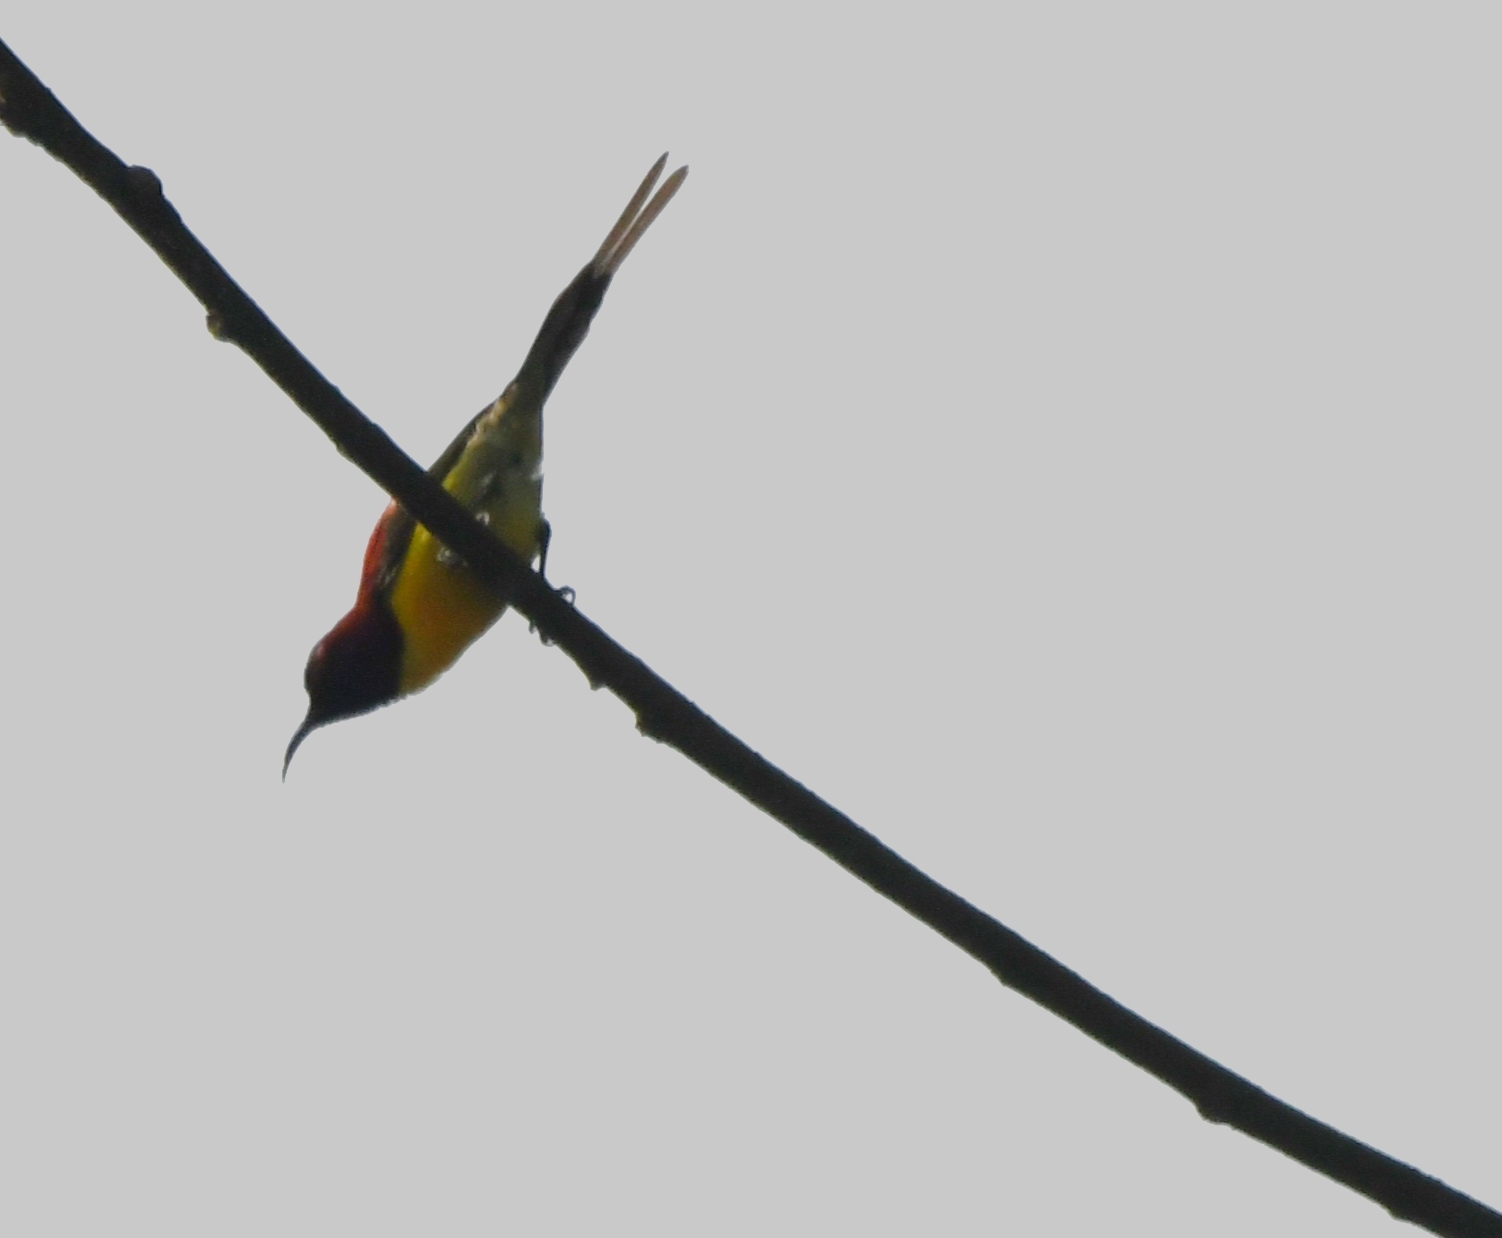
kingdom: Animalia
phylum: Chordata
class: Aves
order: Passeriformes
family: Nectariniidae
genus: Aethopyga
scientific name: Aethopyga gouldiae
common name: Mrs. gould's sunbird
